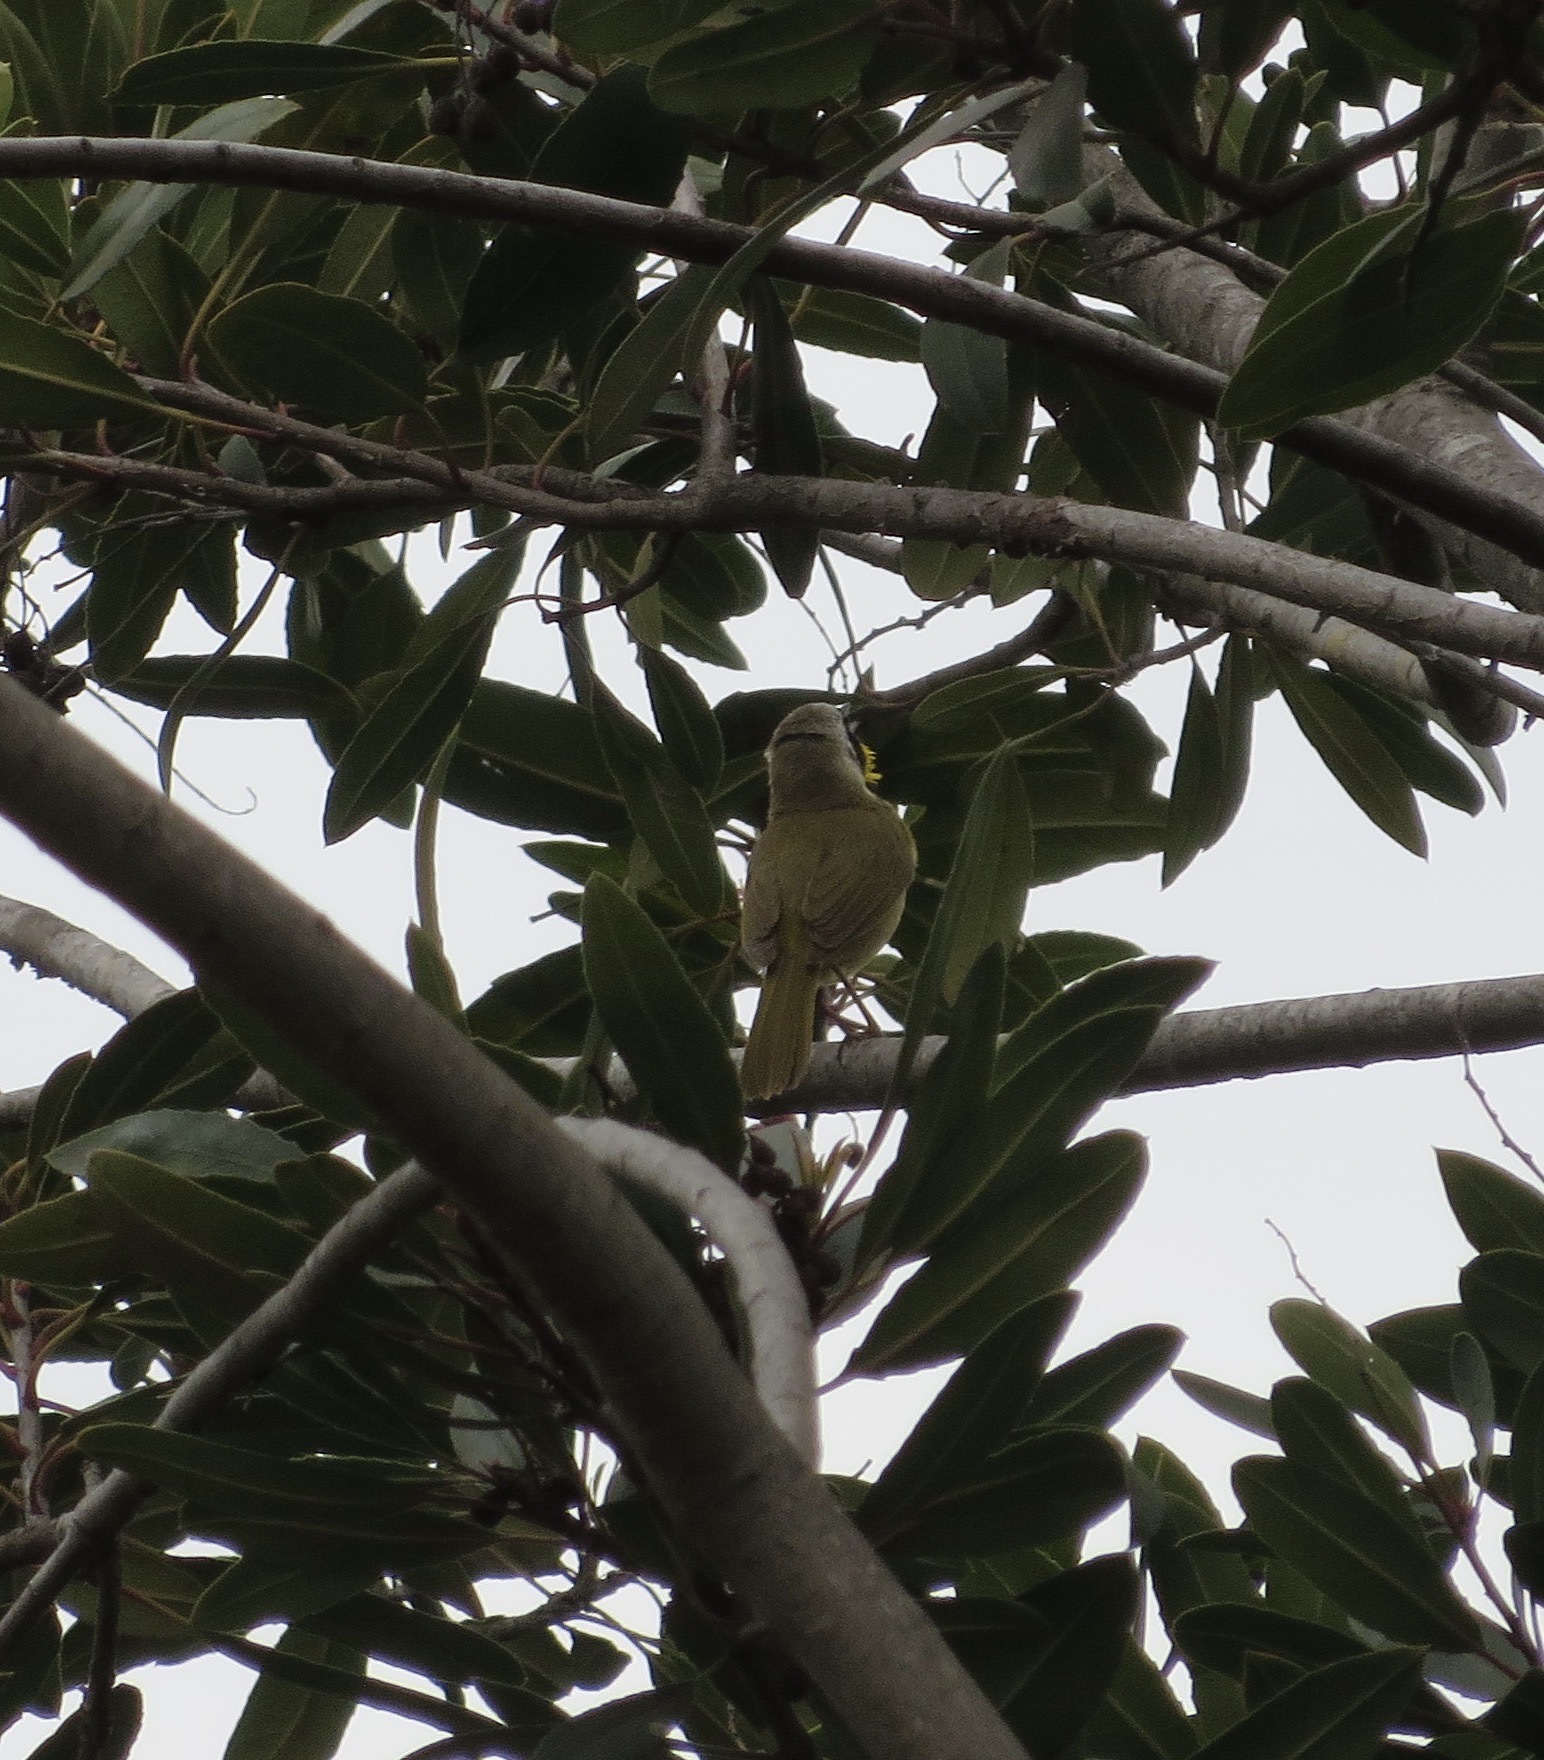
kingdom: Animalia
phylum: Chordata
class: Aves
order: Passeriformes
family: Parulidae
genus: Geothlypis
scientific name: Geothlypis trichas
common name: Common yellowthroat
